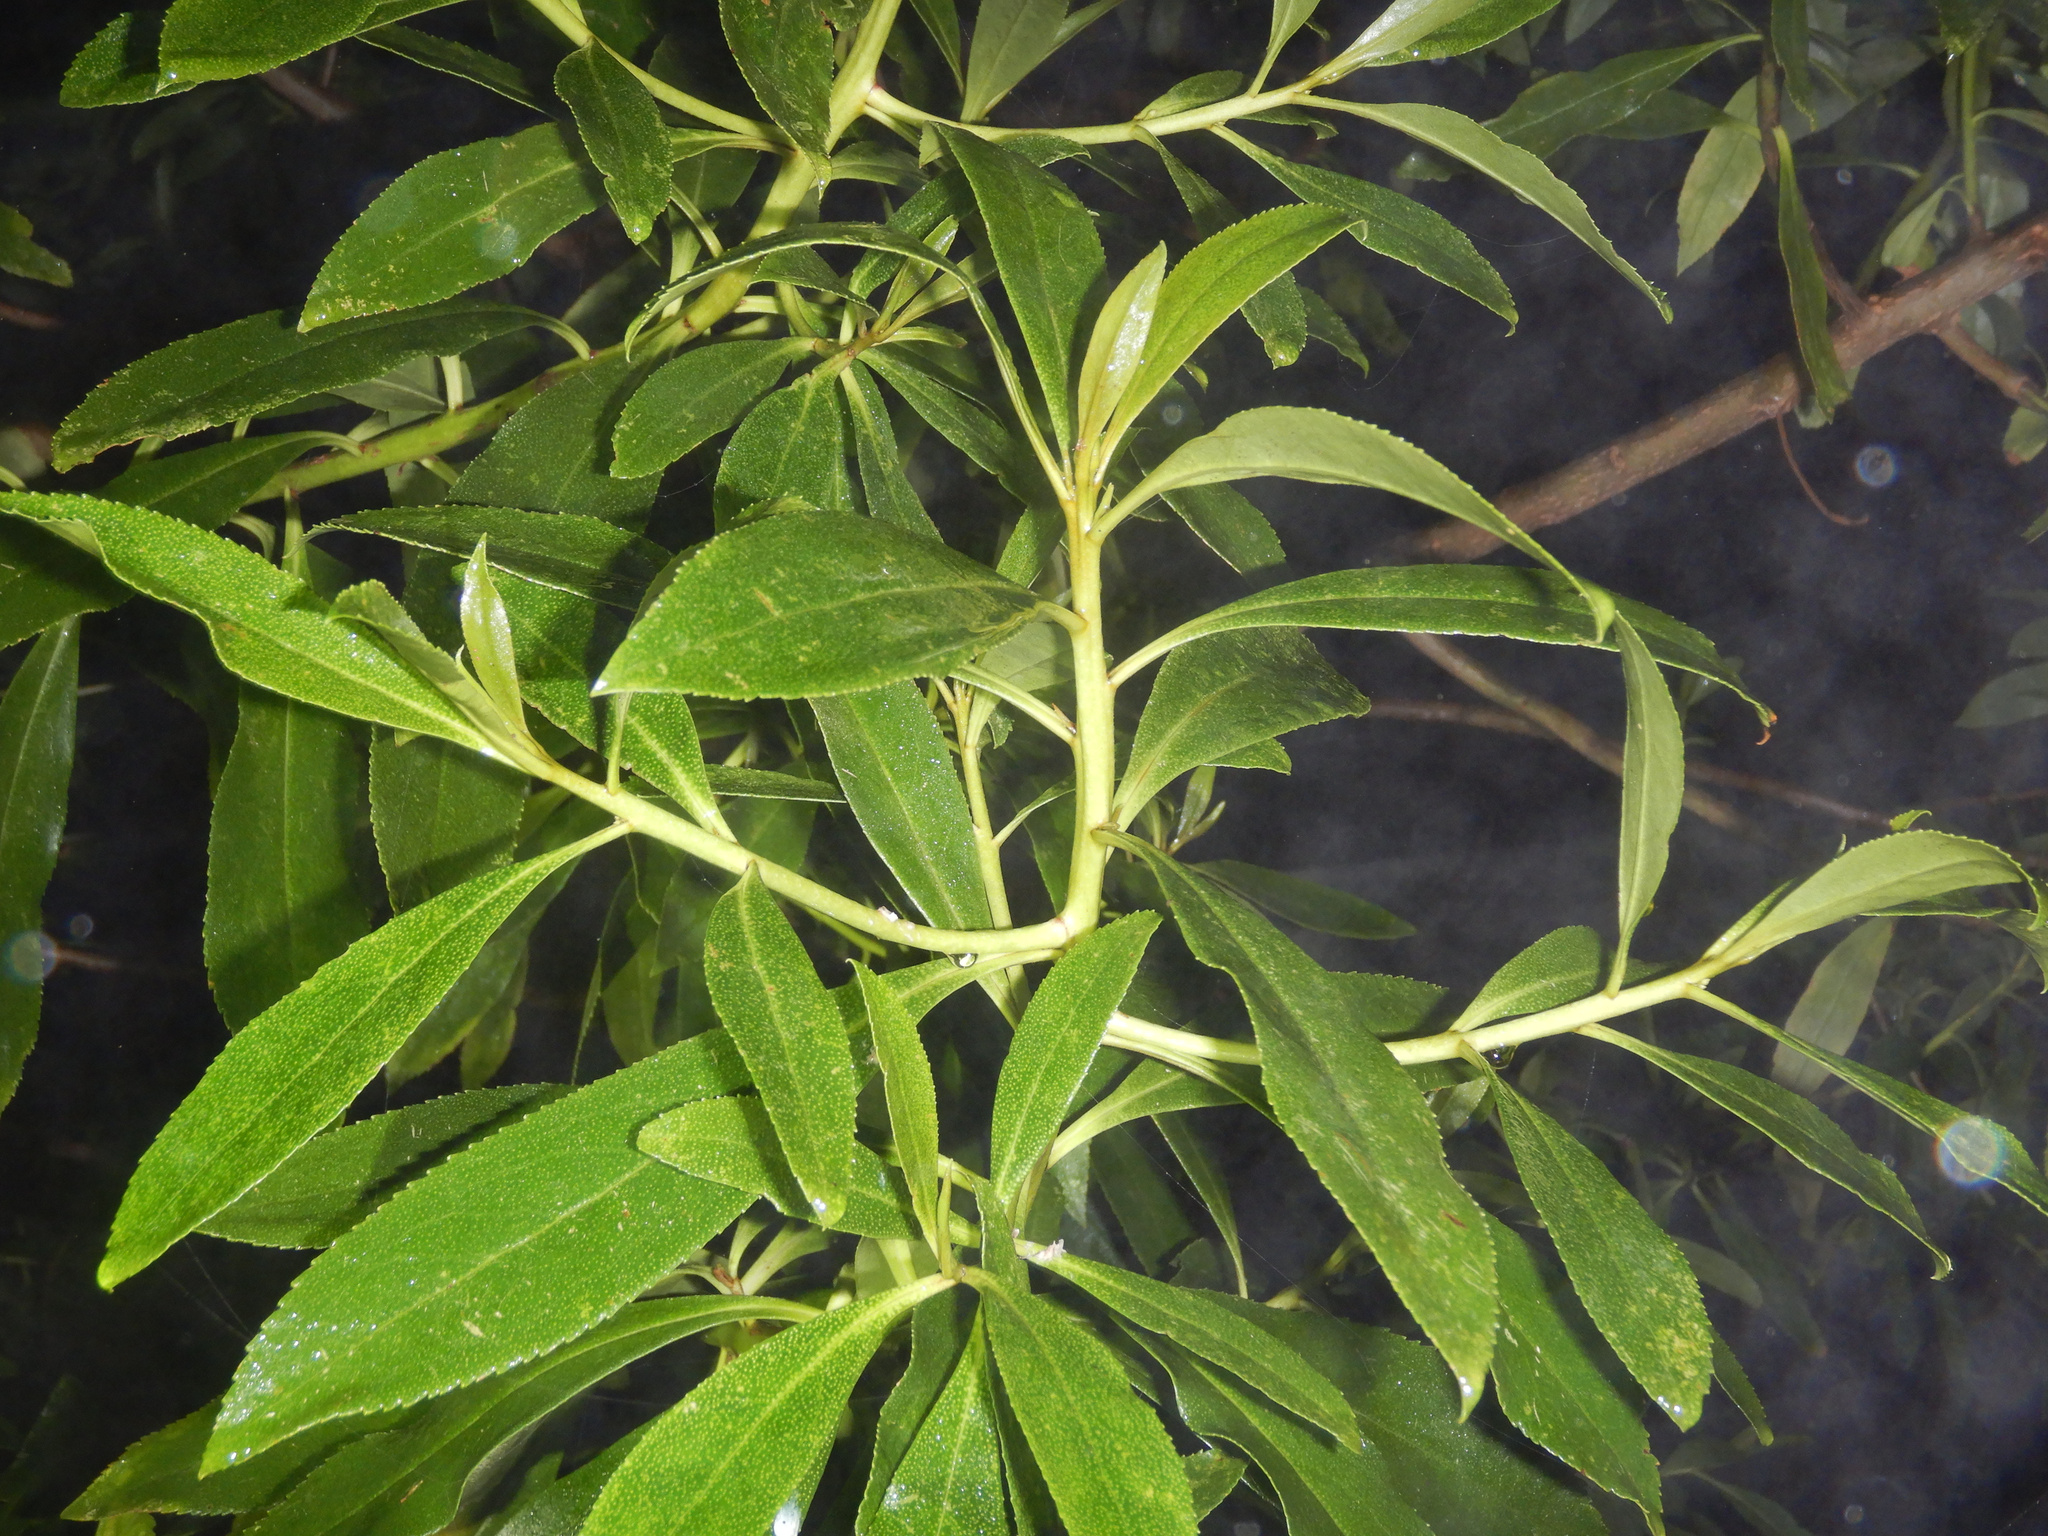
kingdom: Plantae
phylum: Tracheophyta
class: Magnoliopsida
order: Lamiales
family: Scrophulariaceae
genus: Myoporum
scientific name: Myoporum laetum
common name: Ngaio tree
